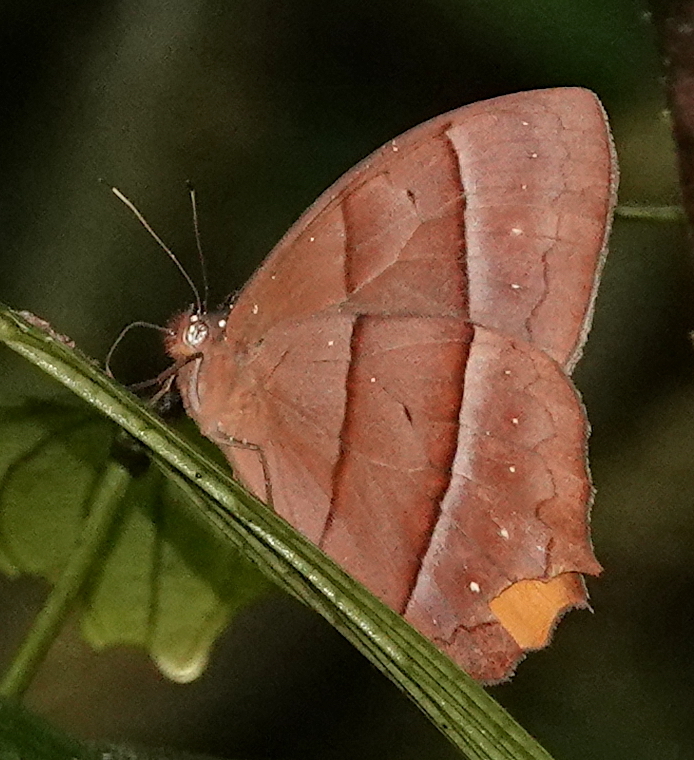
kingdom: Animalia
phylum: Arthropoda
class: Insecta
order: Lepidoptera
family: Nymphalidae
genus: Taygetis
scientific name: Taygetis chrysogone
